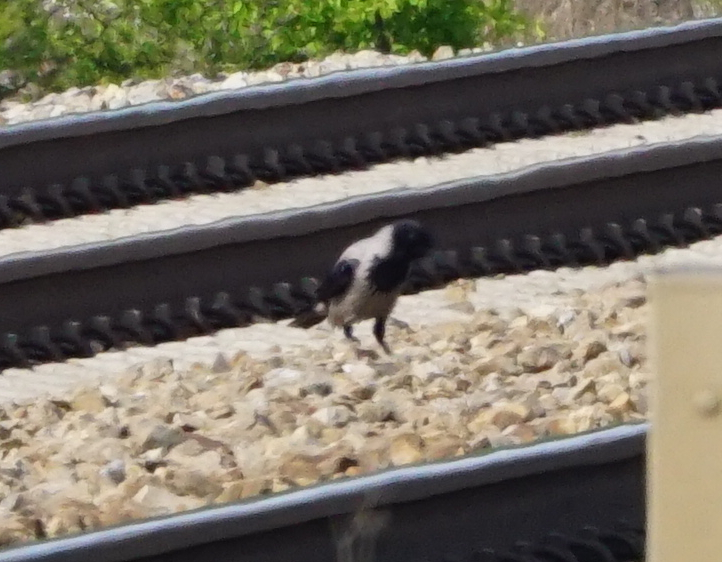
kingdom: Animalia
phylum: Chordata
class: Aves
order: Passeriformes
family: Corvidae
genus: Corvus
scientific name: Corvus cornix
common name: Hooded crow
